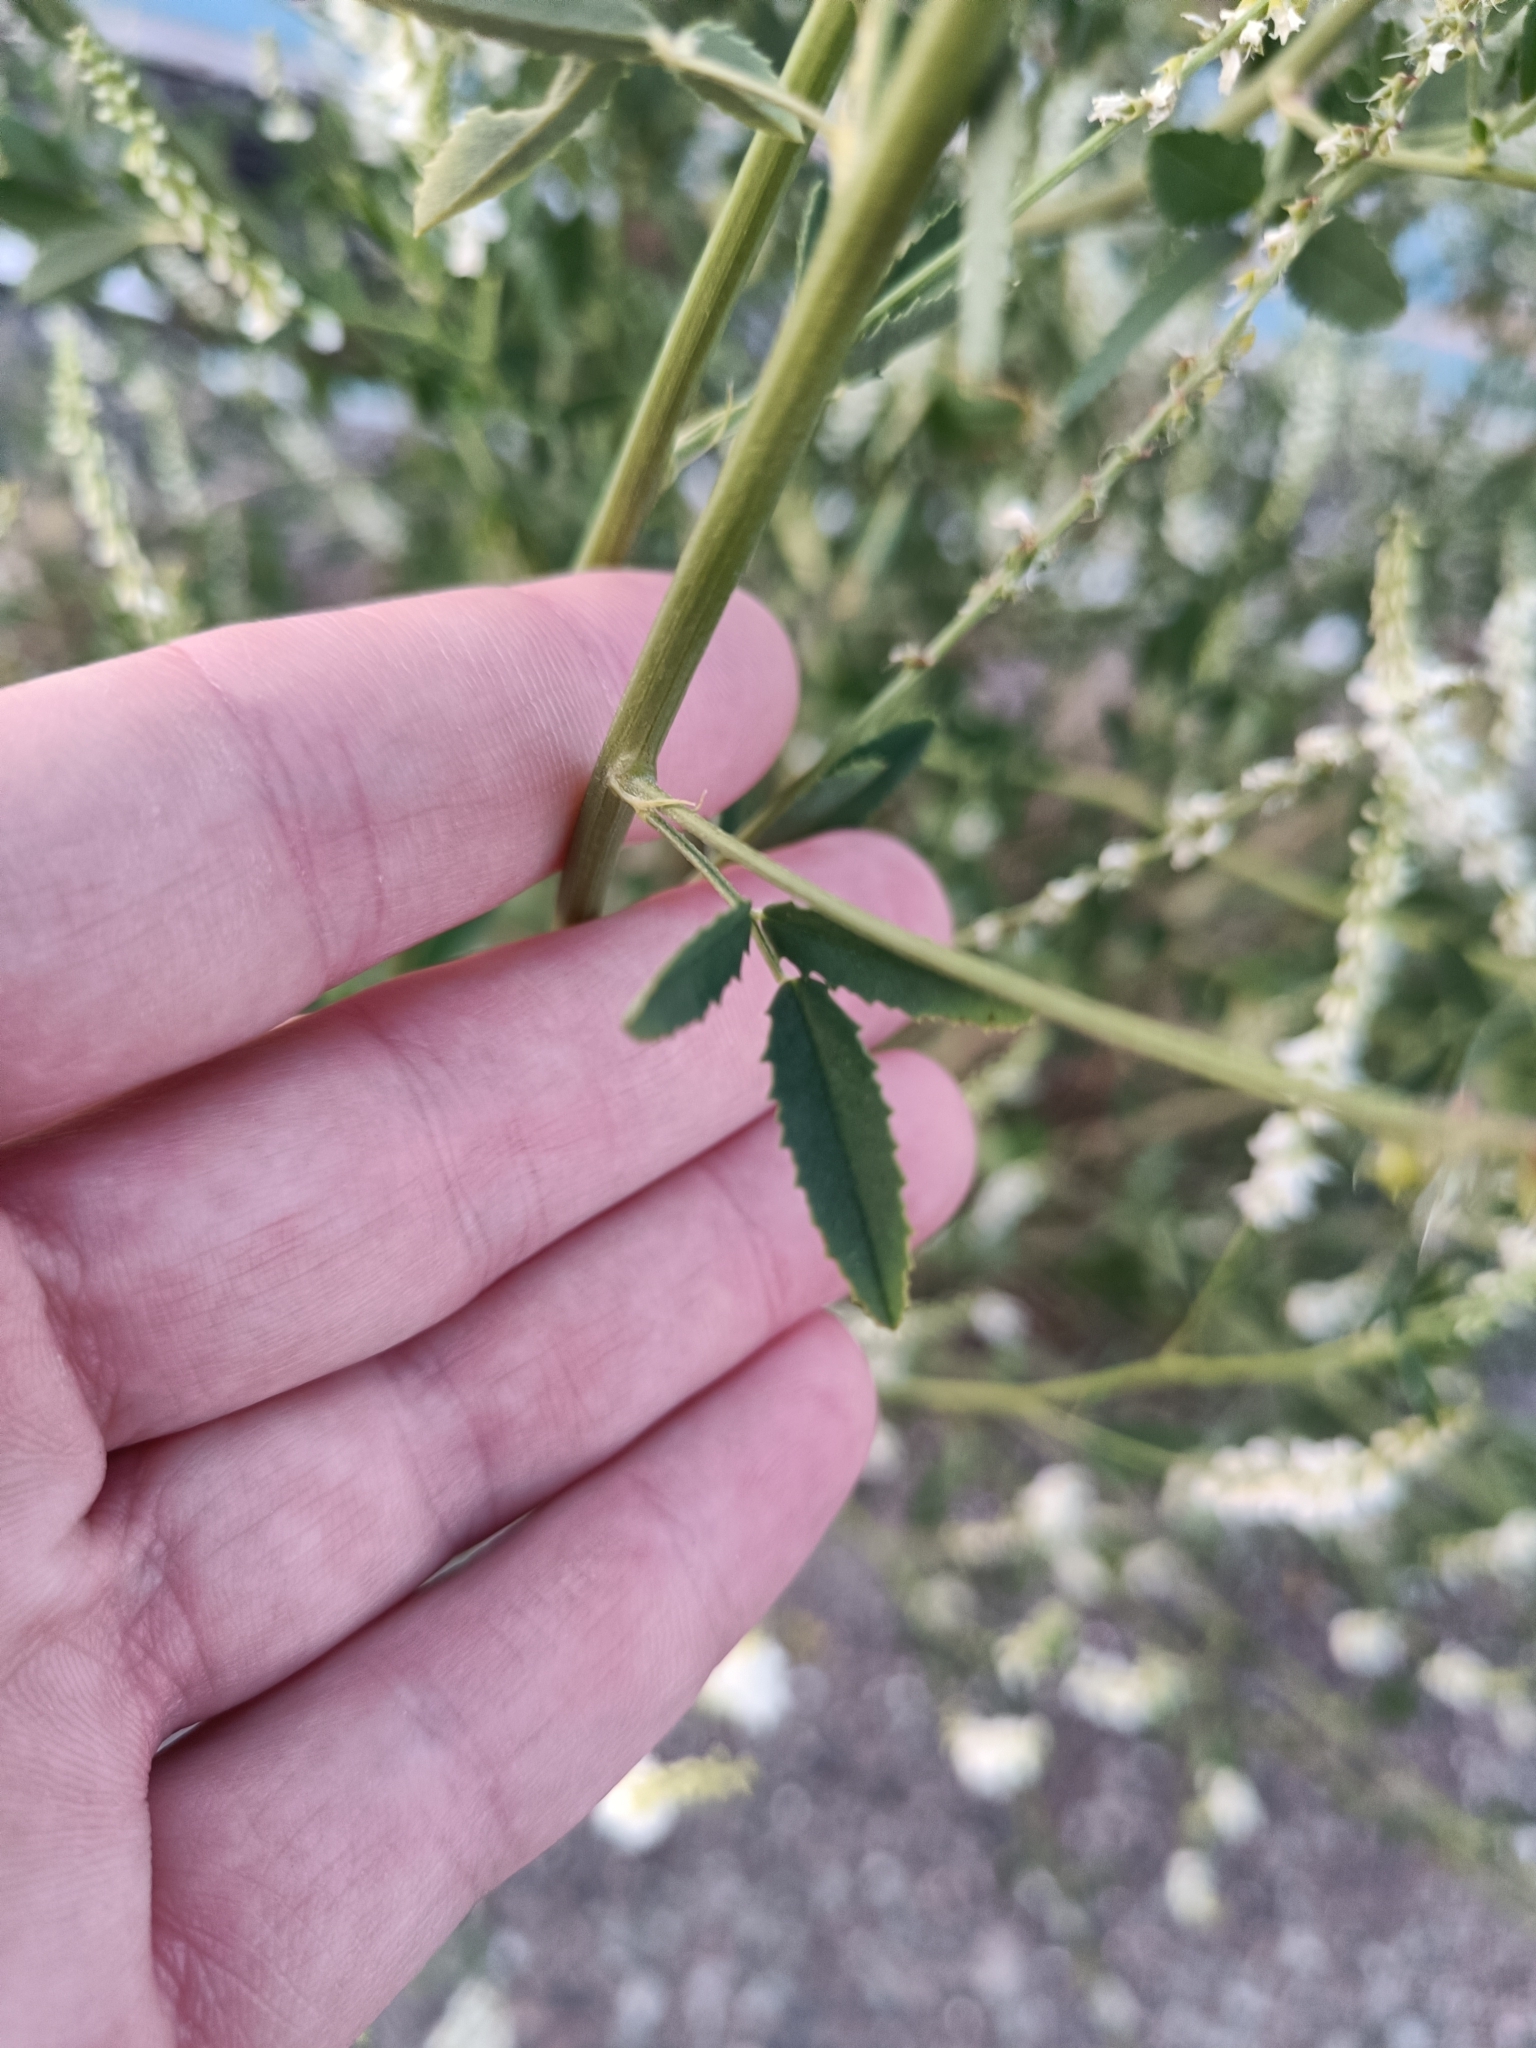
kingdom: Plantae
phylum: Tracheophyta
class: Magnoliopsida
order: Fabales
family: Fabaceae
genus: Melilotus
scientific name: Melilotus albus
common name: White melilot
